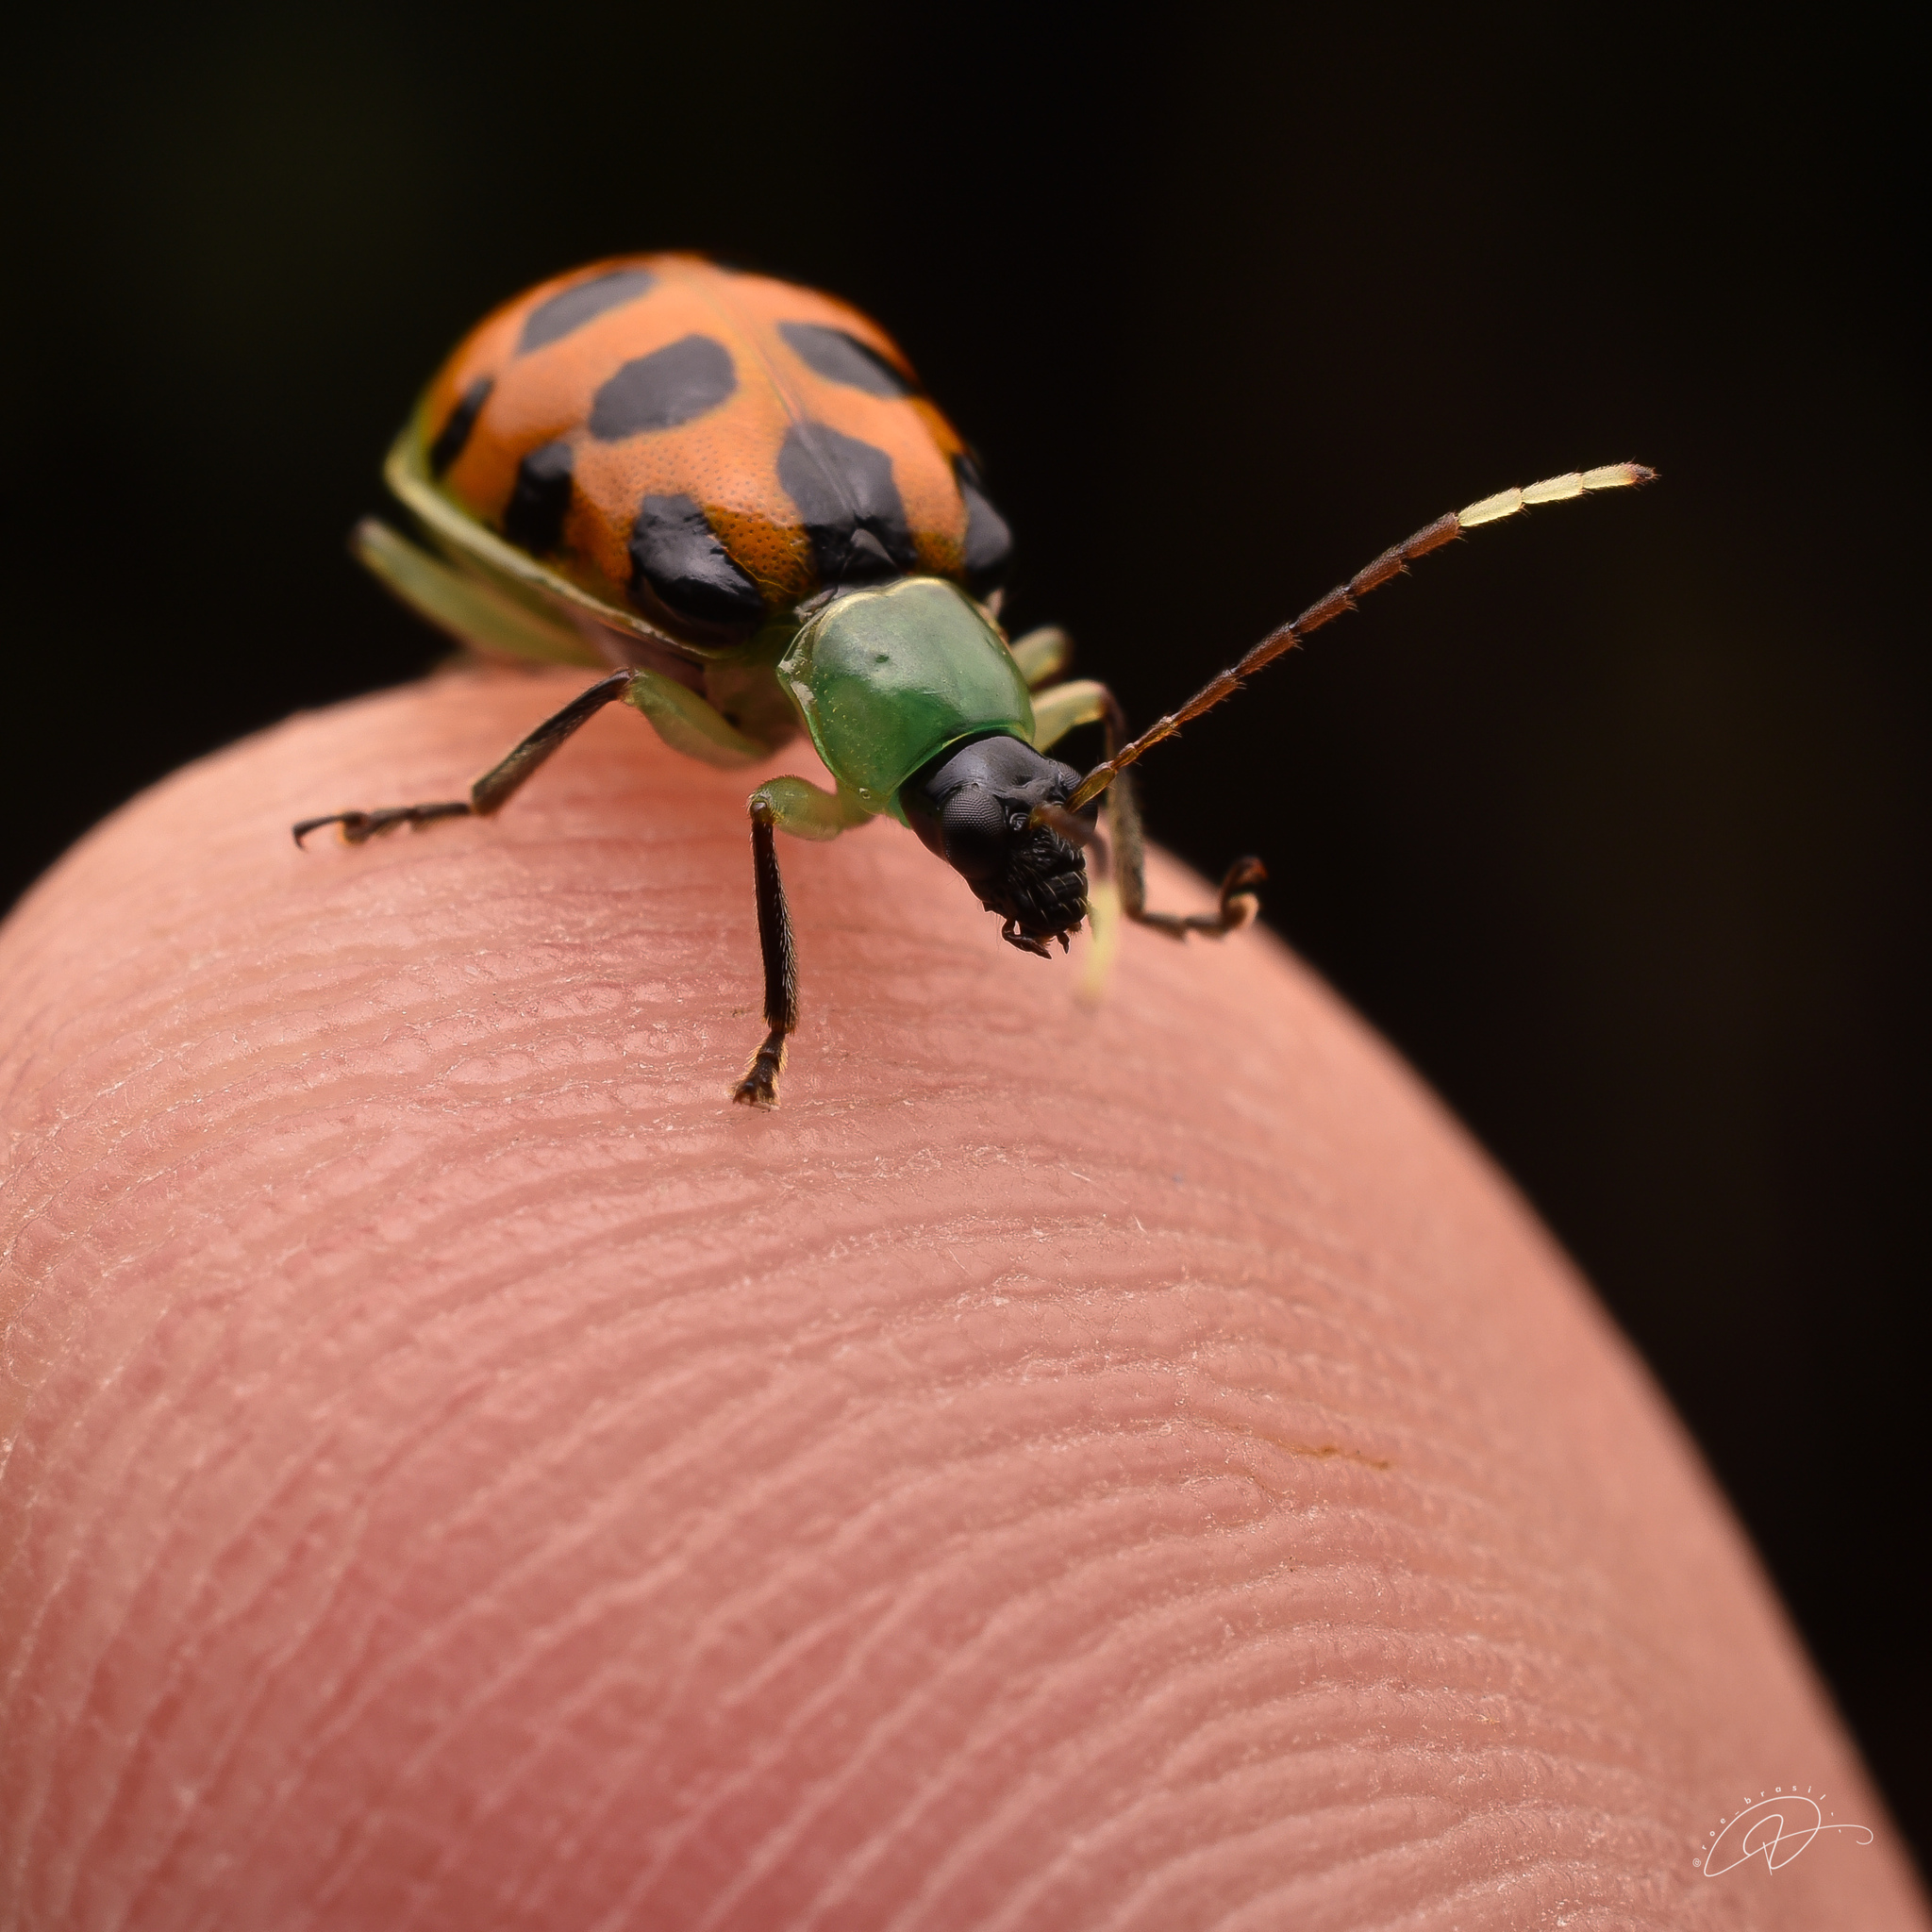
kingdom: Animalia
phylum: Arthropoda
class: Insecta
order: Coleoptera
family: Chrysomelidae
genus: Diabrotica
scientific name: Diabrotica limitata
